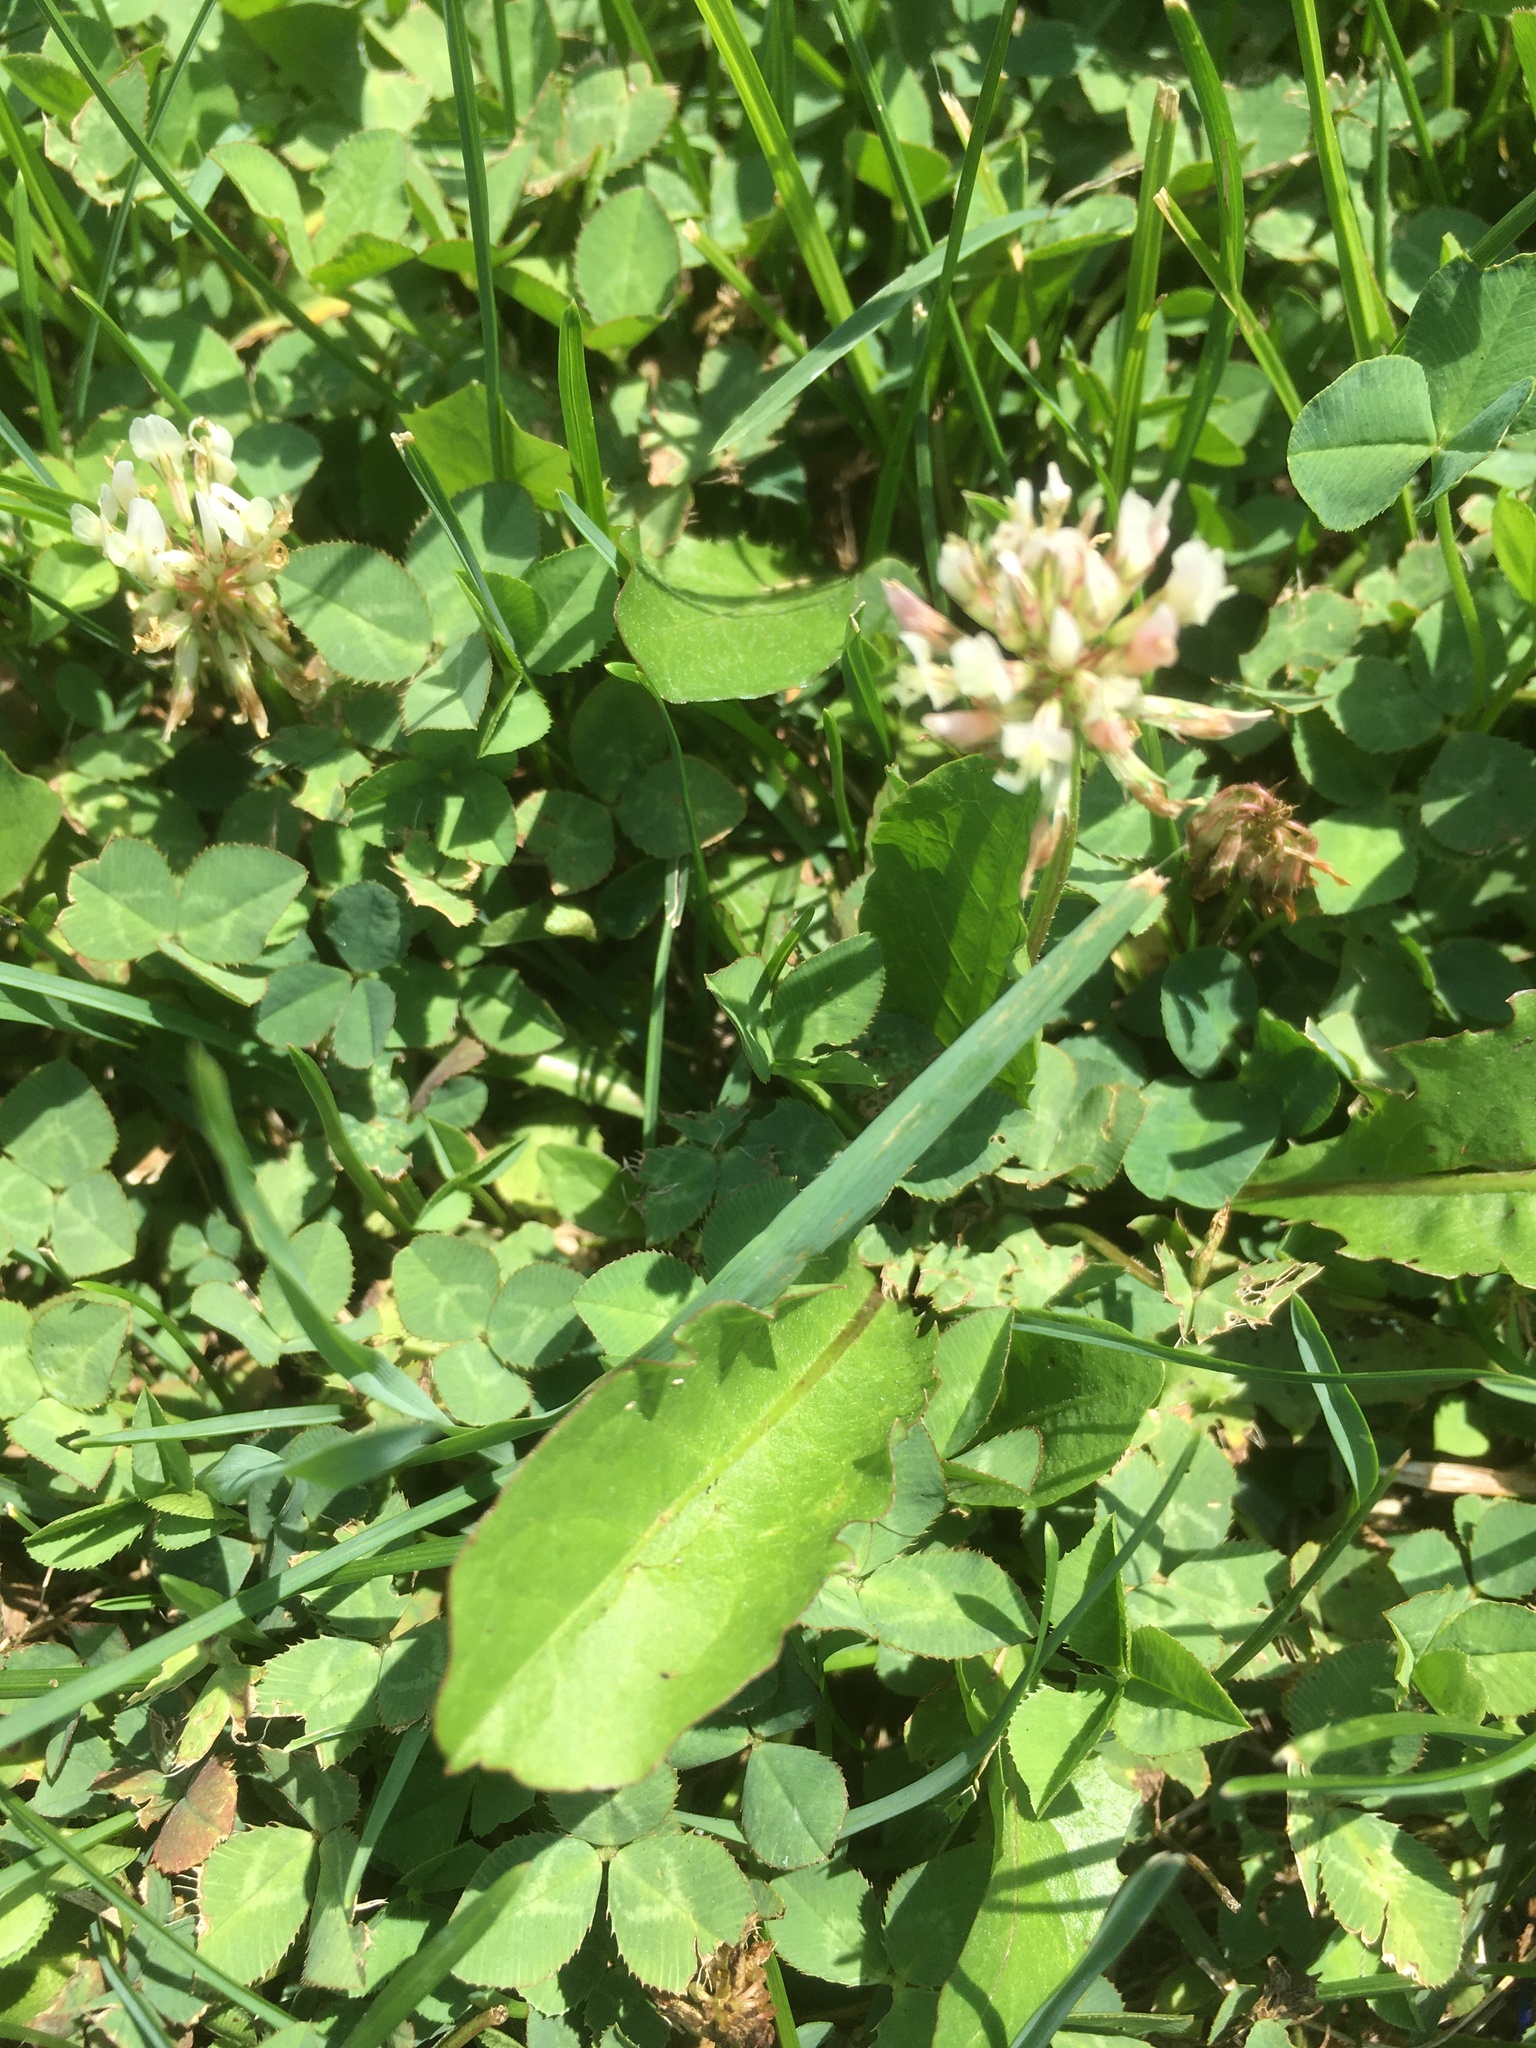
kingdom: Plantae
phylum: Tracheophyta
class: Magnoliopsida
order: Fabales
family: Fabaceae
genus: Trifolium
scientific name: Trifolium repens
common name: White clover
